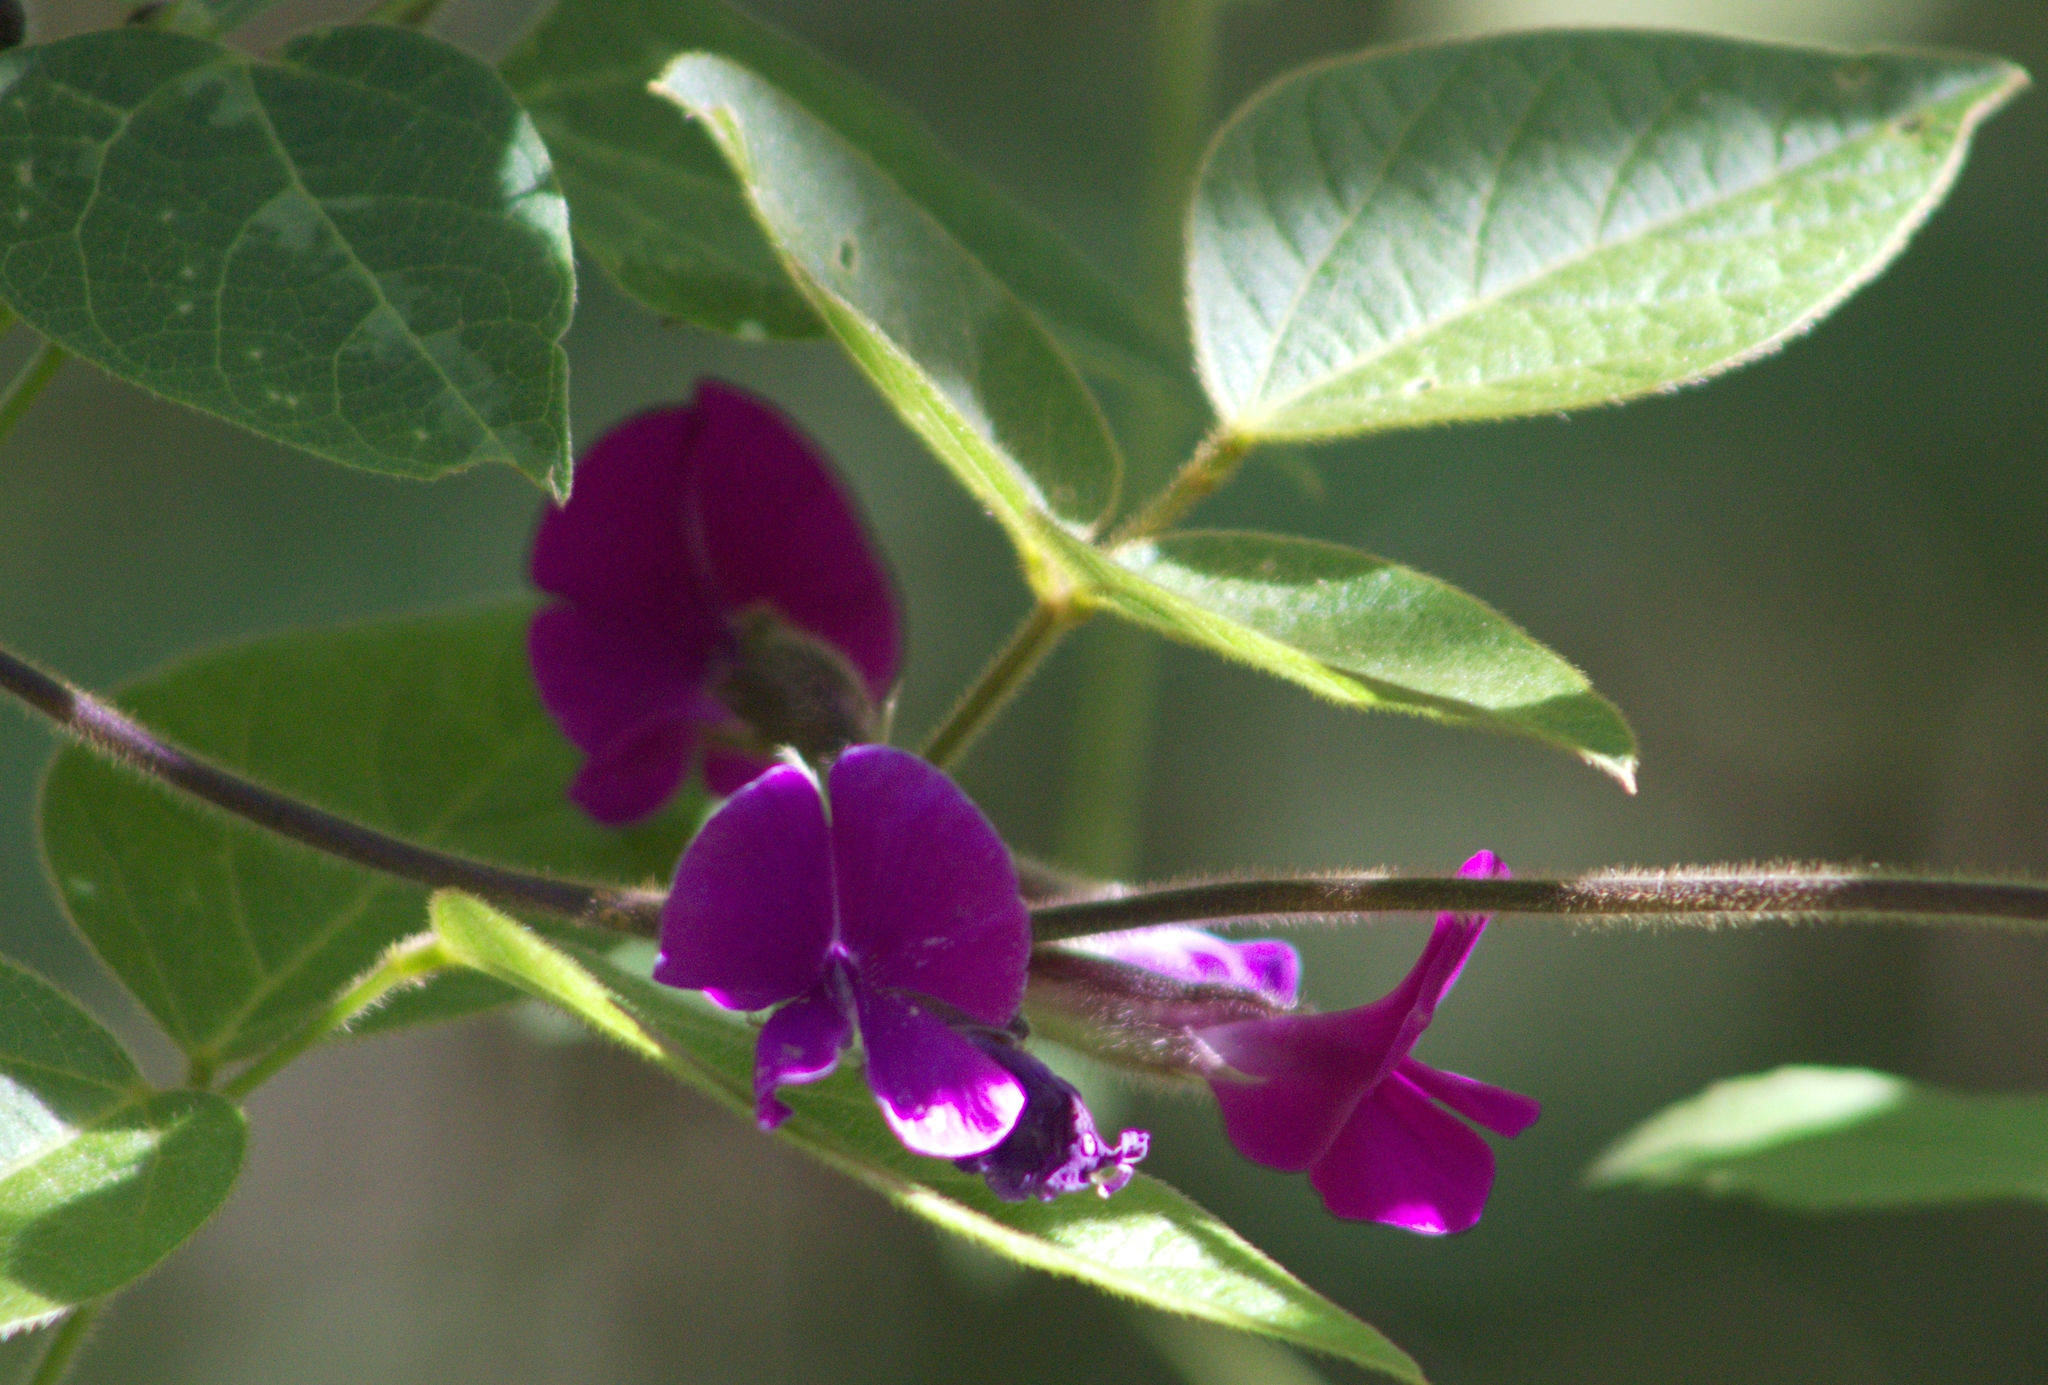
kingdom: Plantae
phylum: Tracheophyta
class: Magnoliopsida
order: Fabales
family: Fabaceae
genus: Cologania
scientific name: Cologania broussonetii
